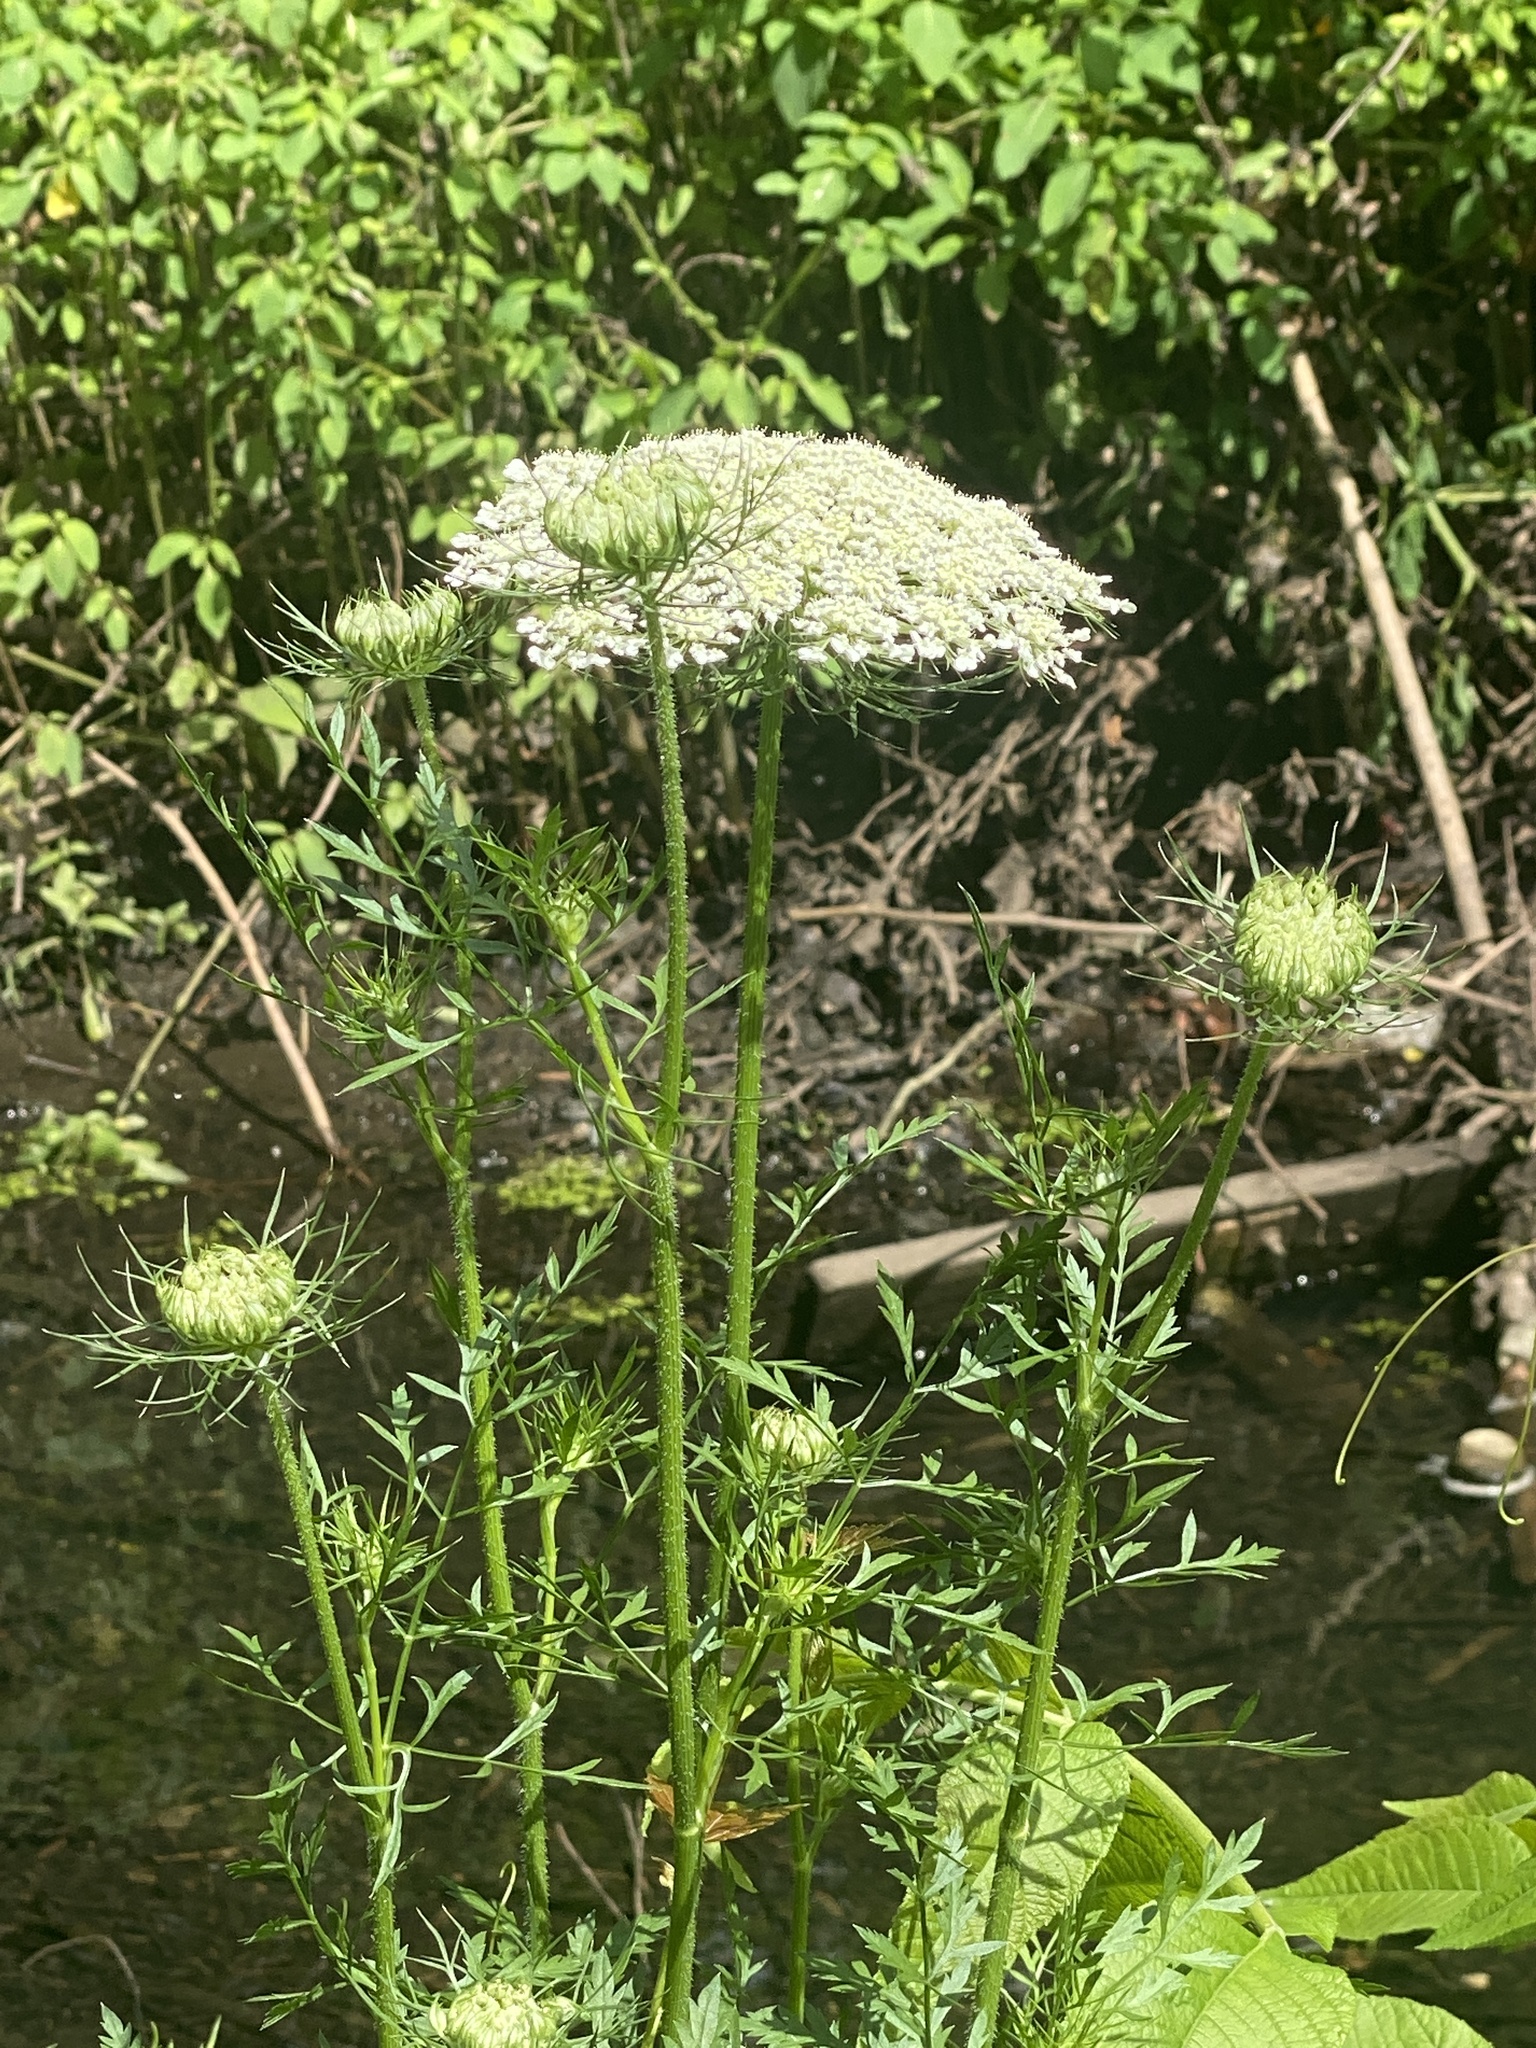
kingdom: Plantae
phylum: Tracheophyta
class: Magnoliopsida
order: Apiales
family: Apiaceae
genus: Daucus
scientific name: Daucus carota
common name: Wild carrot
